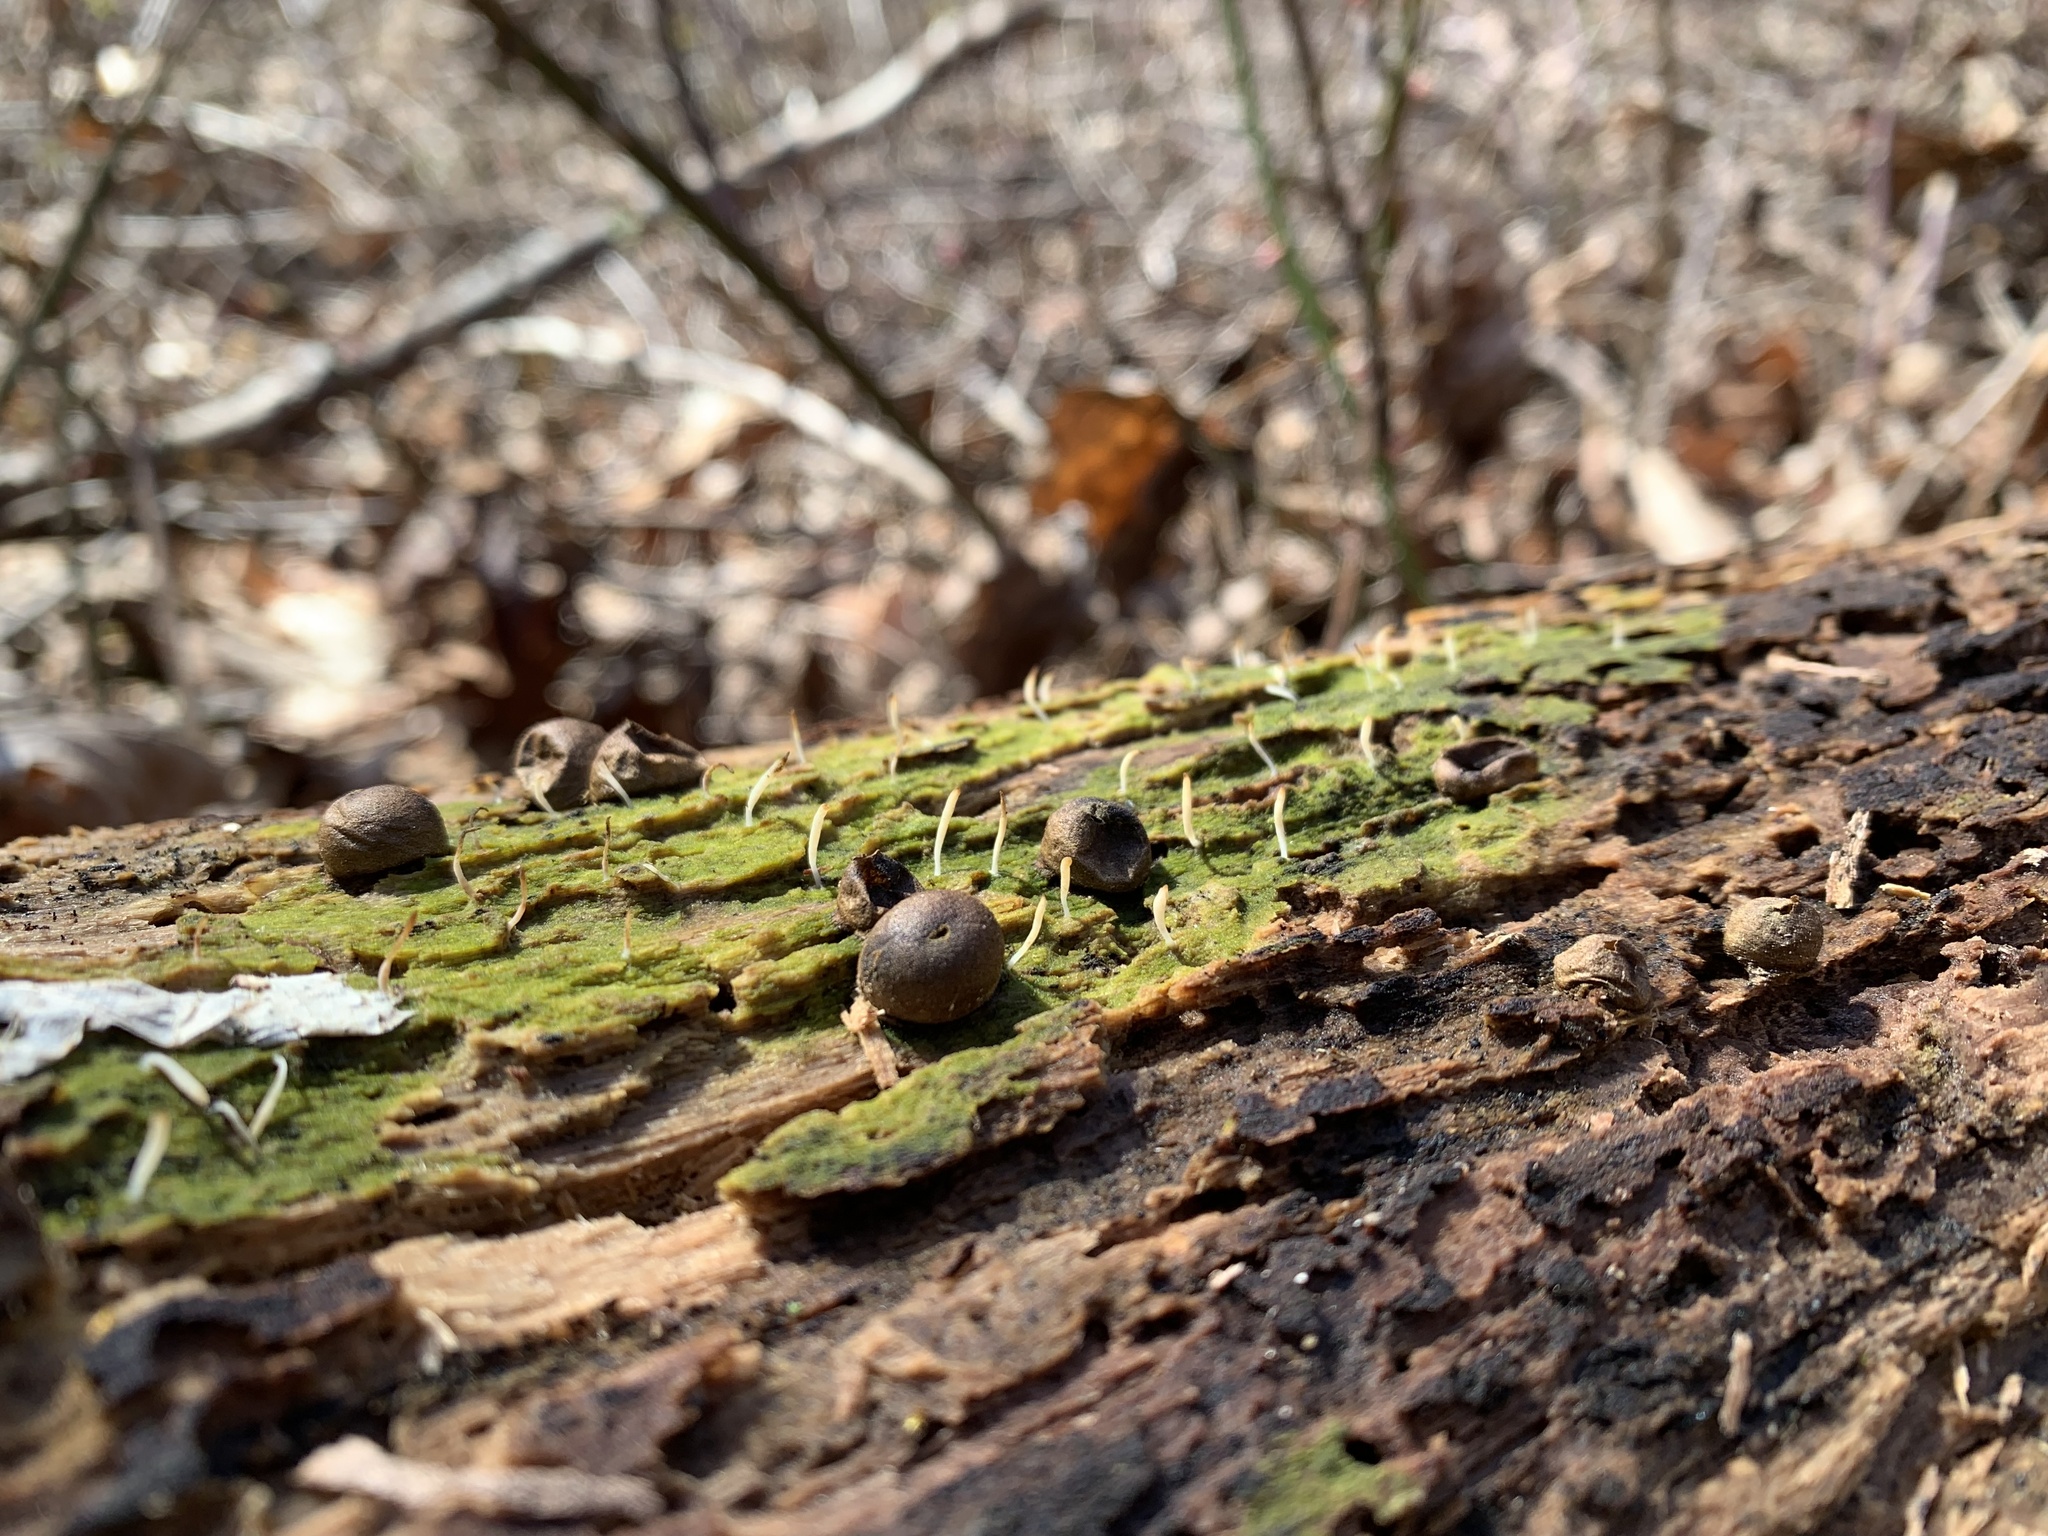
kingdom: Protozoa
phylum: Mycetozoa
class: Myxomycetes
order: Cribrariales
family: Tubiferaceae
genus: Lycogala
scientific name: Lycogala epidendrum
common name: Wolf's milk
